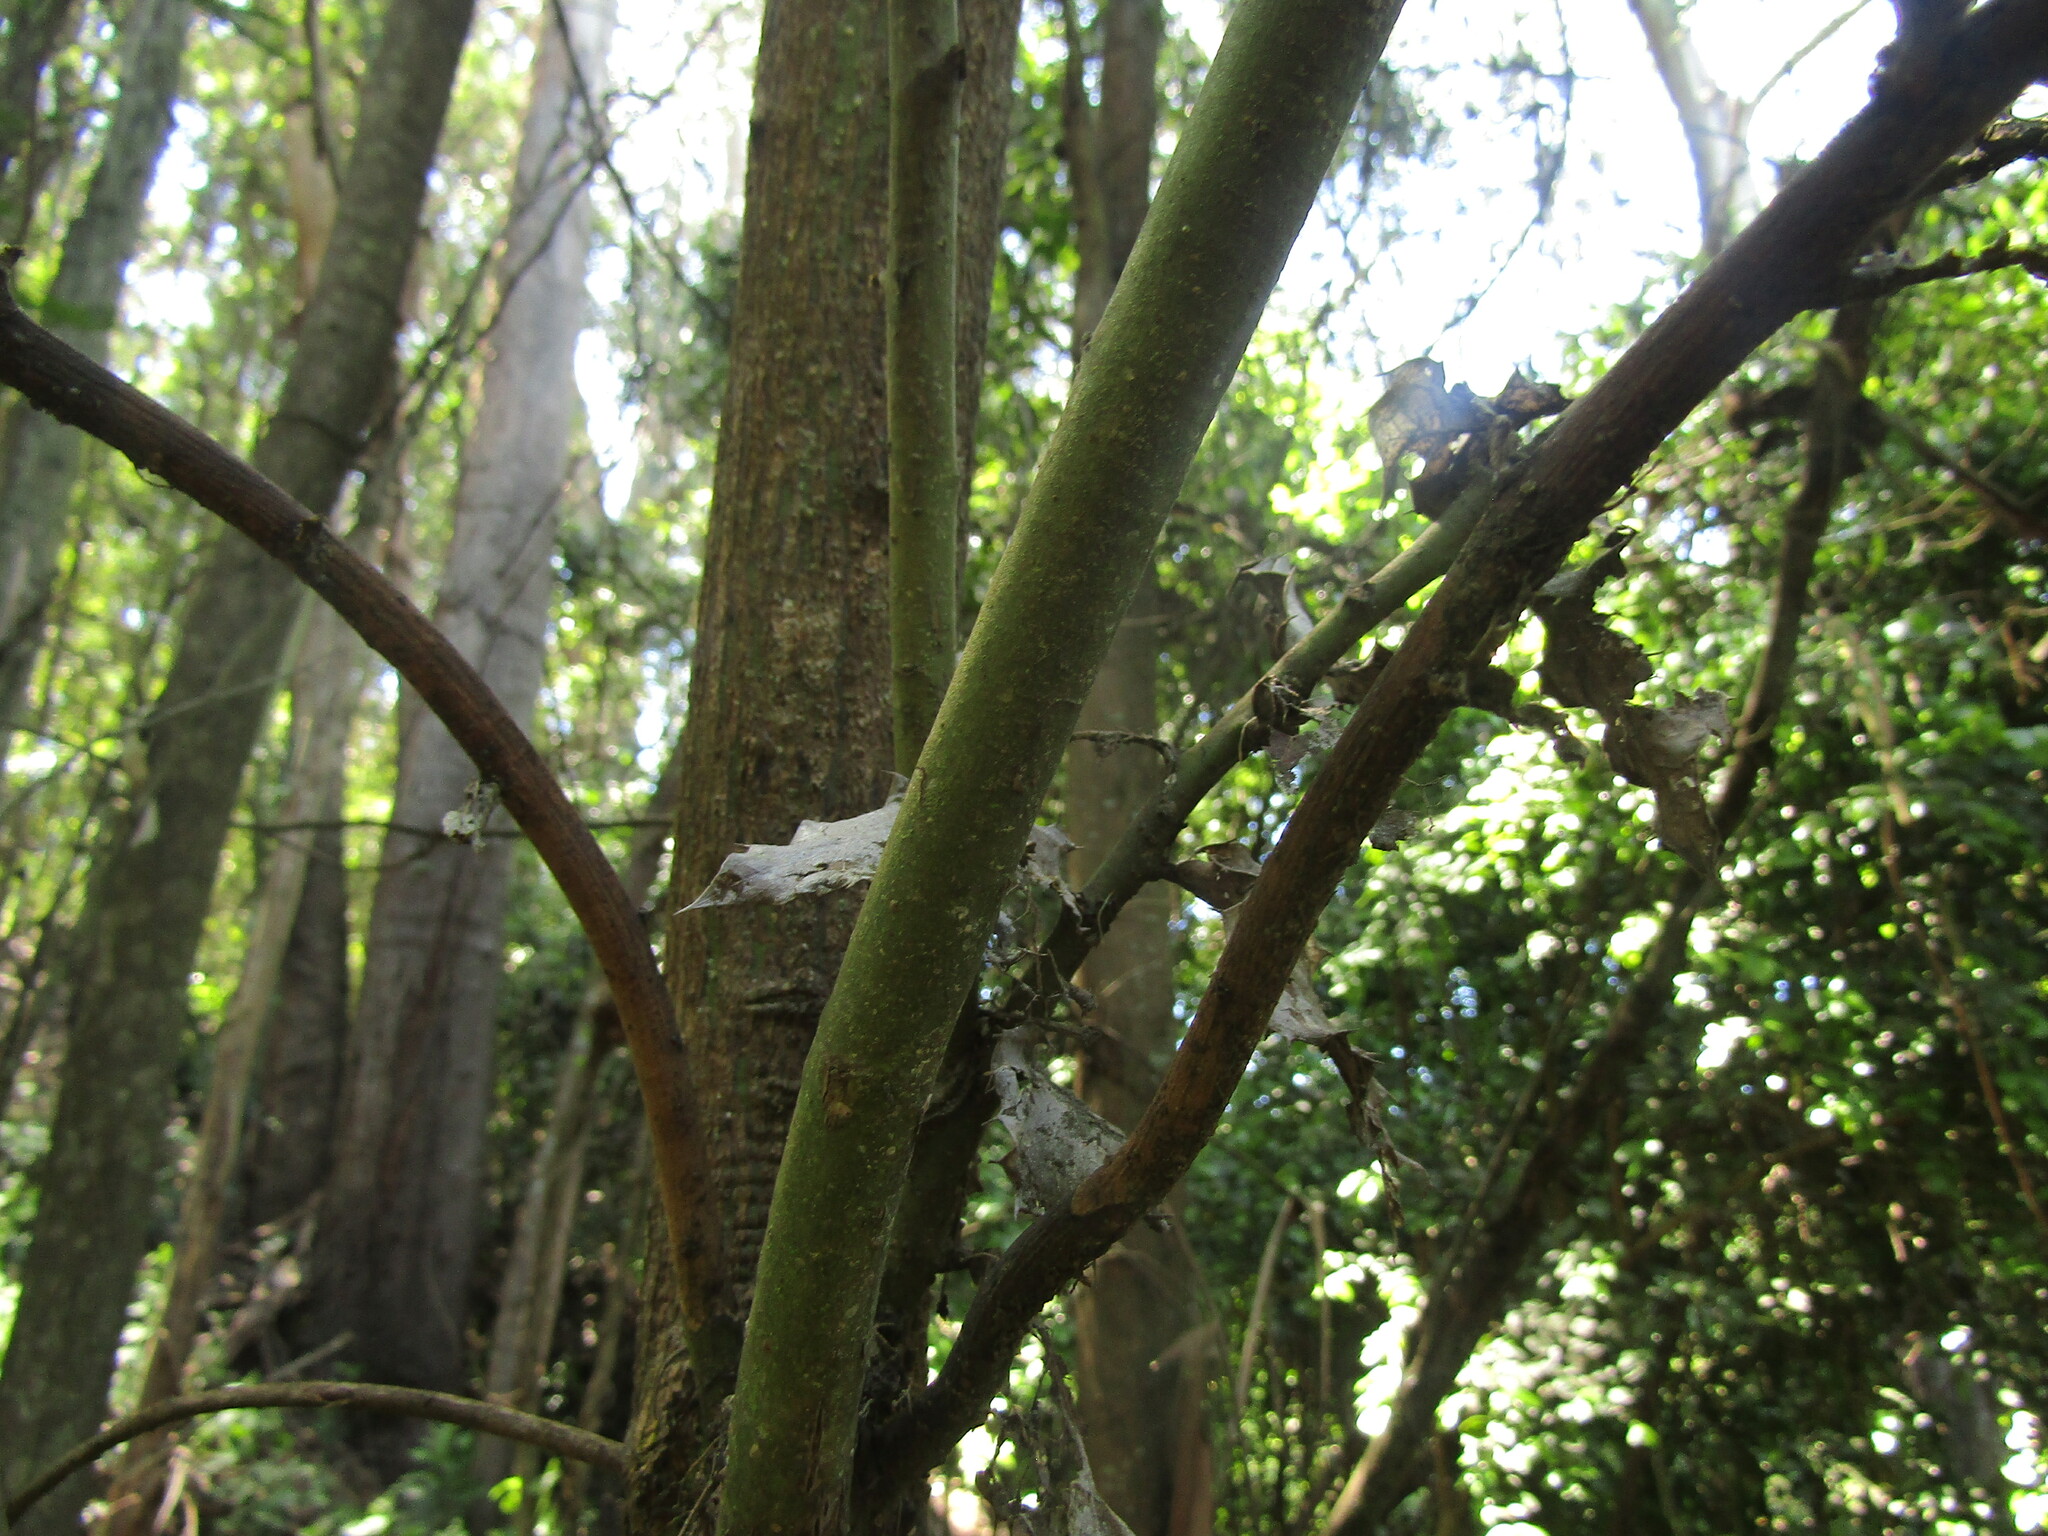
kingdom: Plantae
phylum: Tracheophyta
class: Magnoliopsida
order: Cardiopteridales
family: Cardiopteridaceae
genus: Citronella
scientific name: Citronella mucronata
